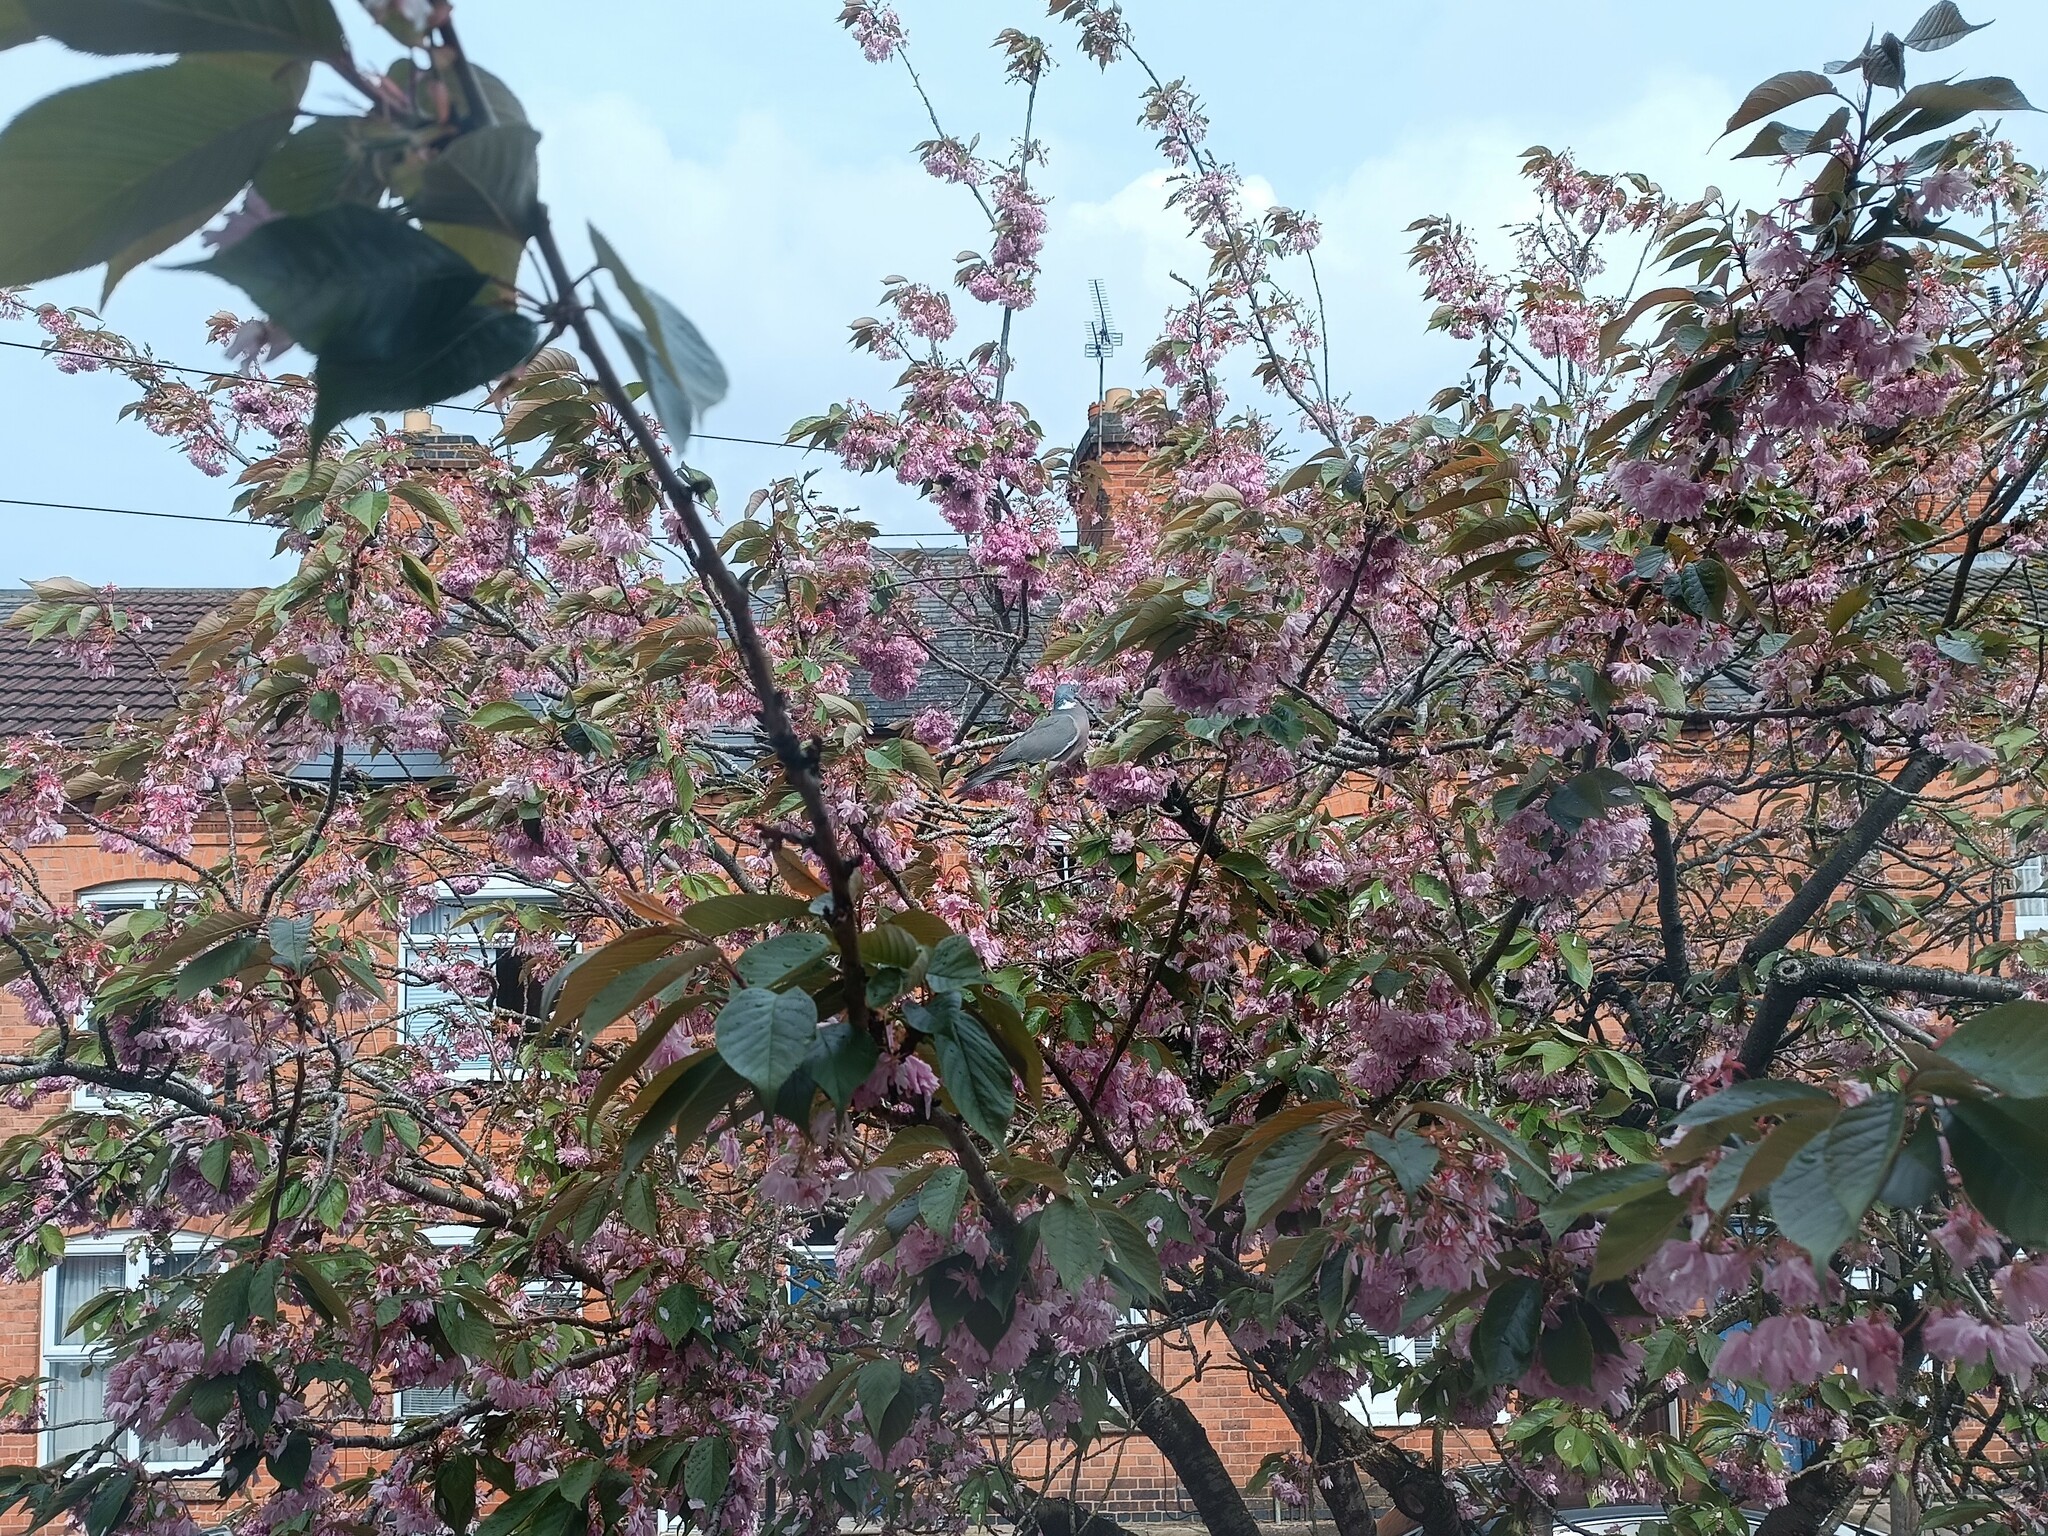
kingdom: Animalia
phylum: Chordata
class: Aves
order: Columbiformes
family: Columbidae
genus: Columba
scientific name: Columba palumbus
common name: Common wood pigeon
